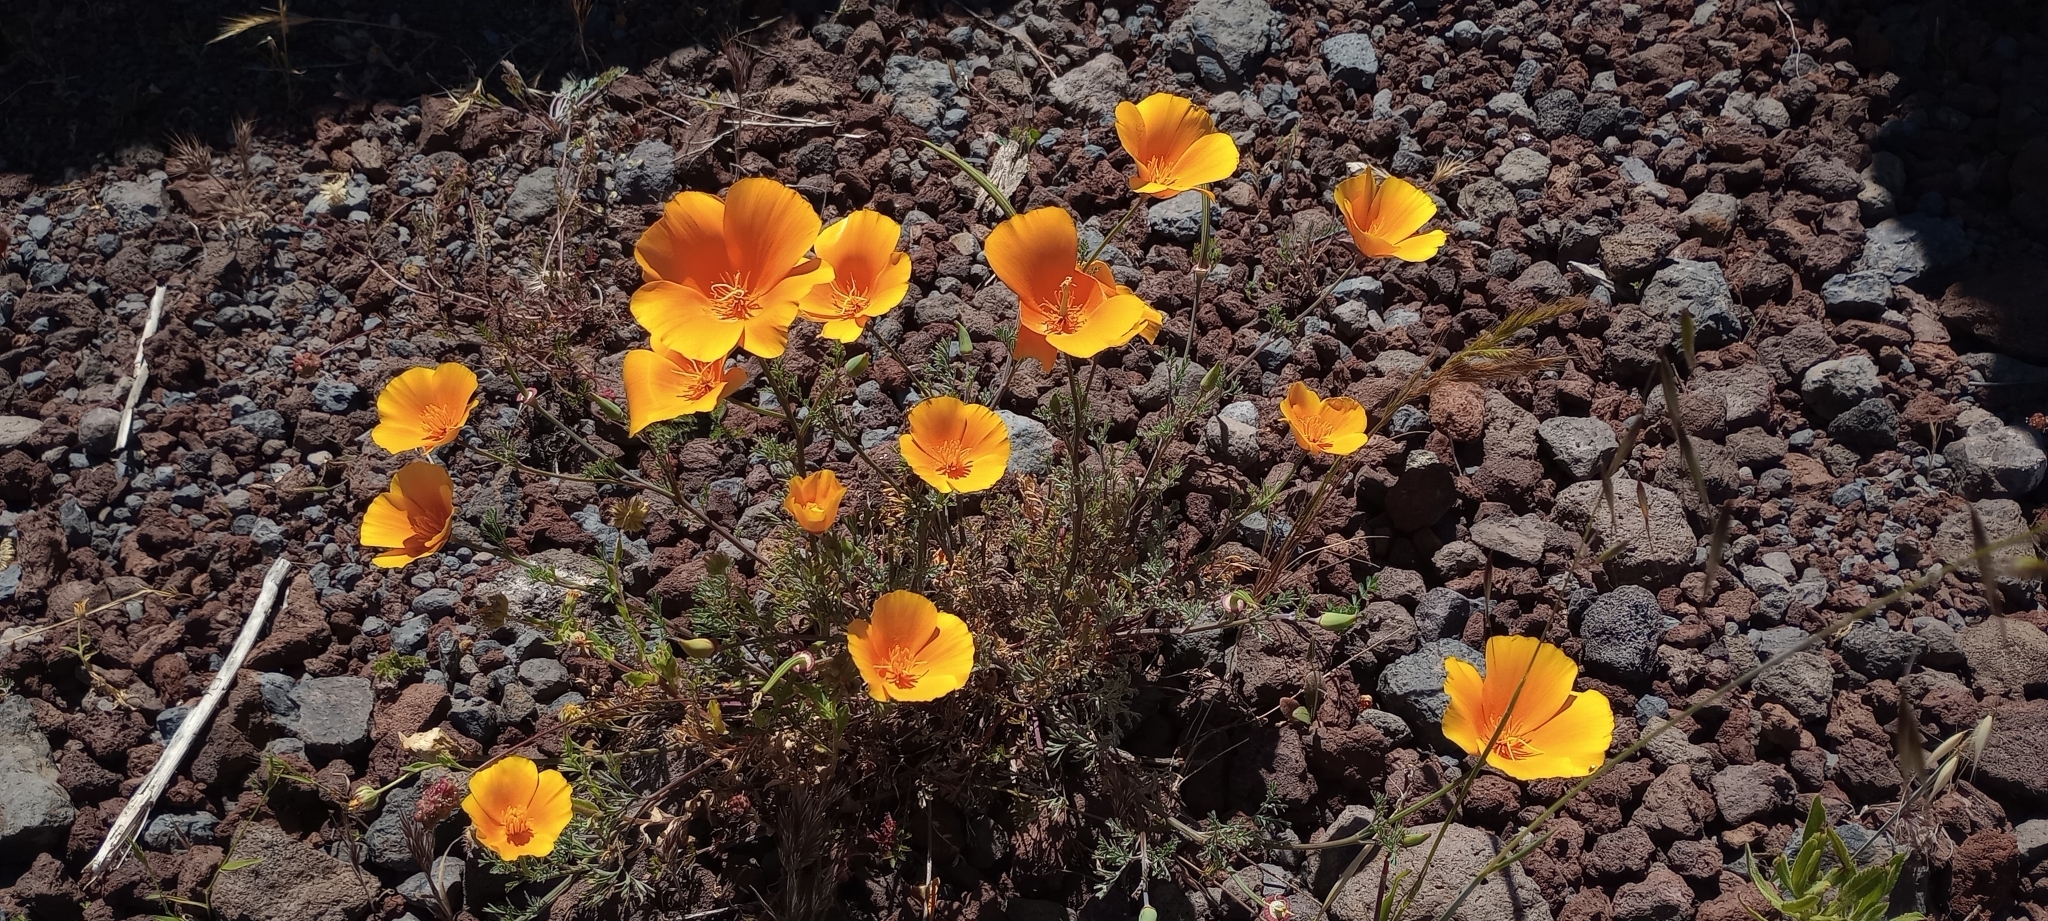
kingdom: Plantae
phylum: Tracheophyta
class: Magnoliopsida
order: Ranunculales
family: Papaveraceae
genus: Eschscholzia
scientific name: Eschscholzia californica
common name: California poppy
